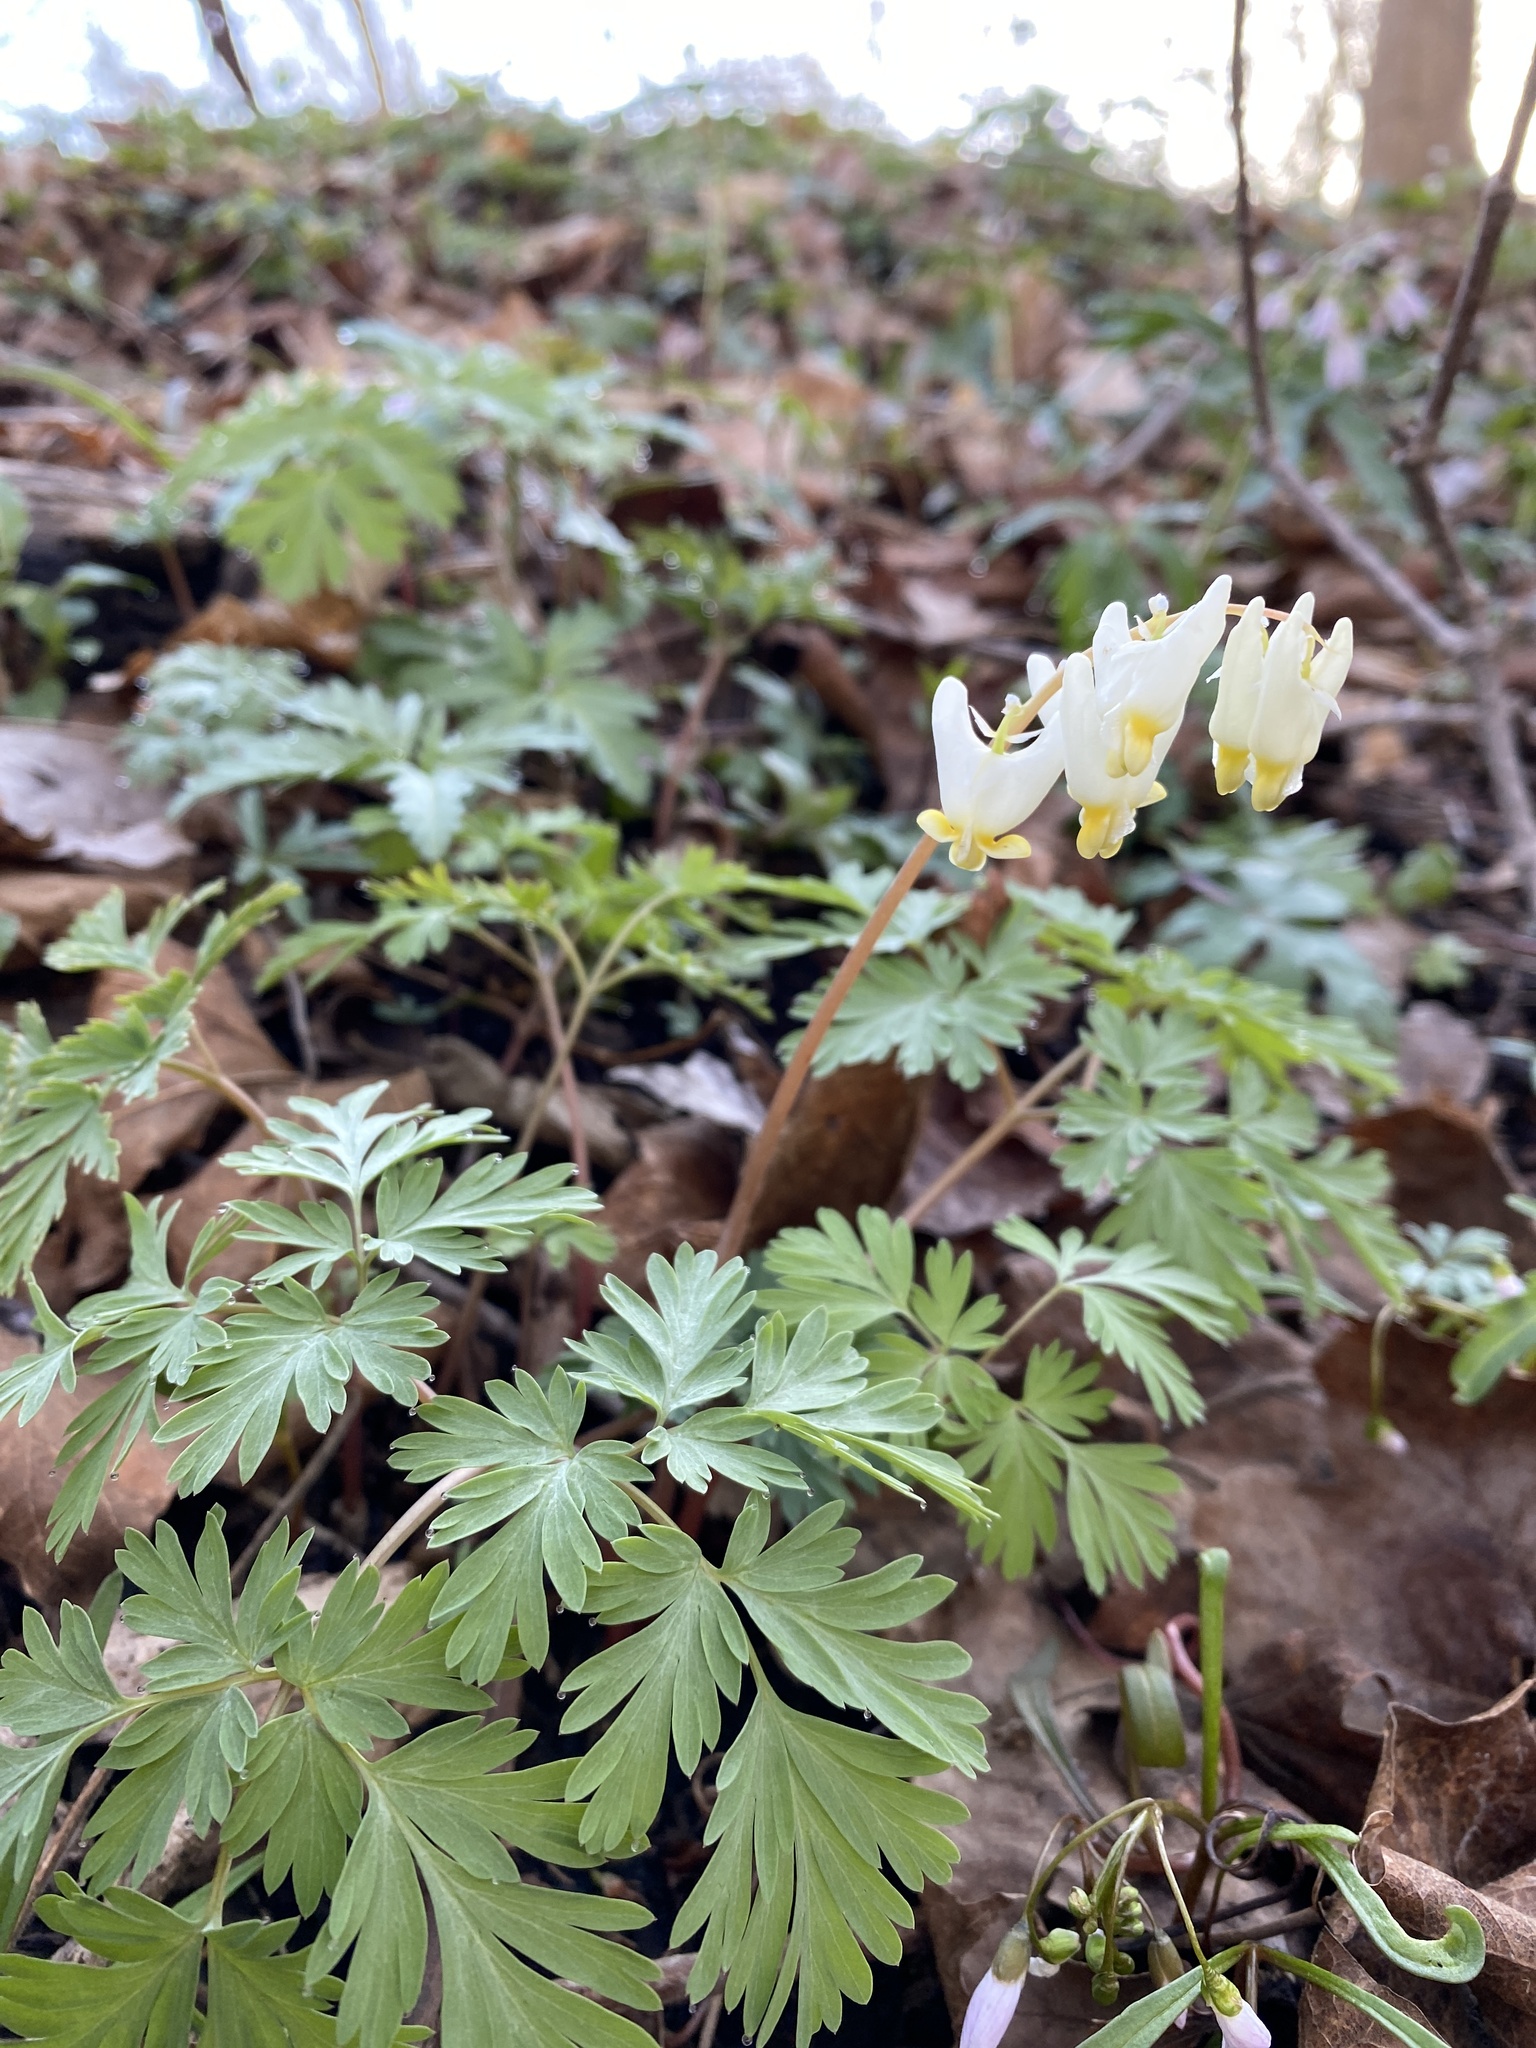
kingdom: Plantae
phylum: Tracheophyta
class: Magnoliopsida
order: Ranunculales
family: Papaveraceae
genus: Dicentra
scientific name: Dicentra cucullaria
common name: Dutchman's breeches
